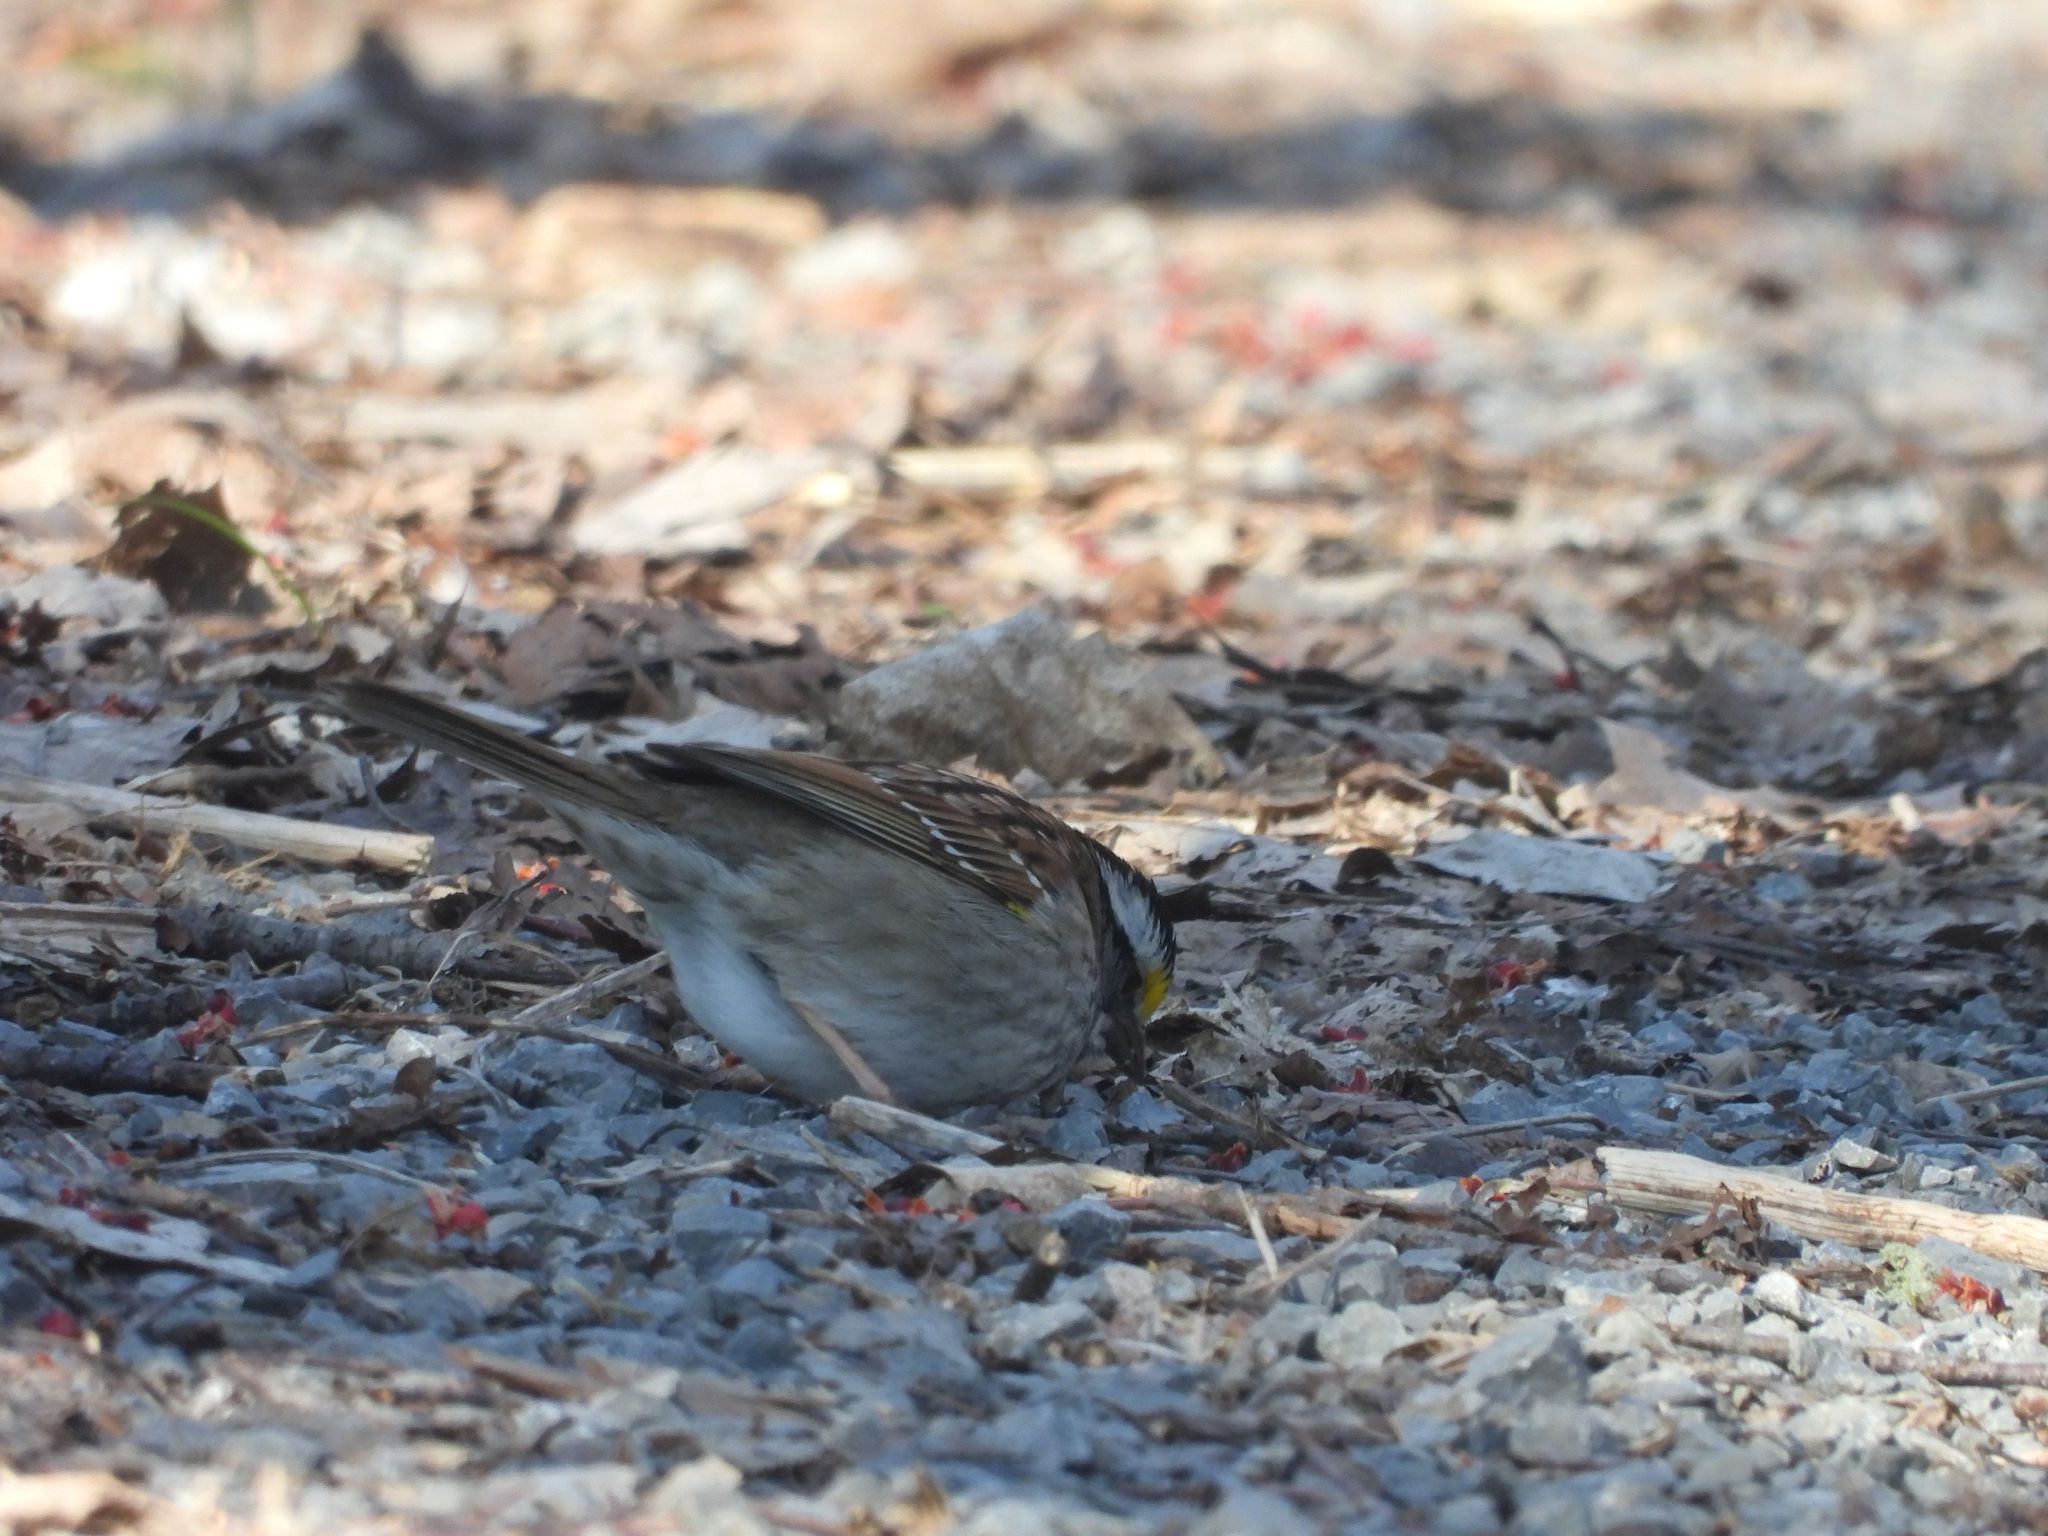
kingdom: Animalia
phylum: Chordata
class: Aves
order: Passeriformes
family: Passerellidae
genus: Zonotrichia
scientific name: Zonotrichia albicollis
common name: White-throated sparrow
